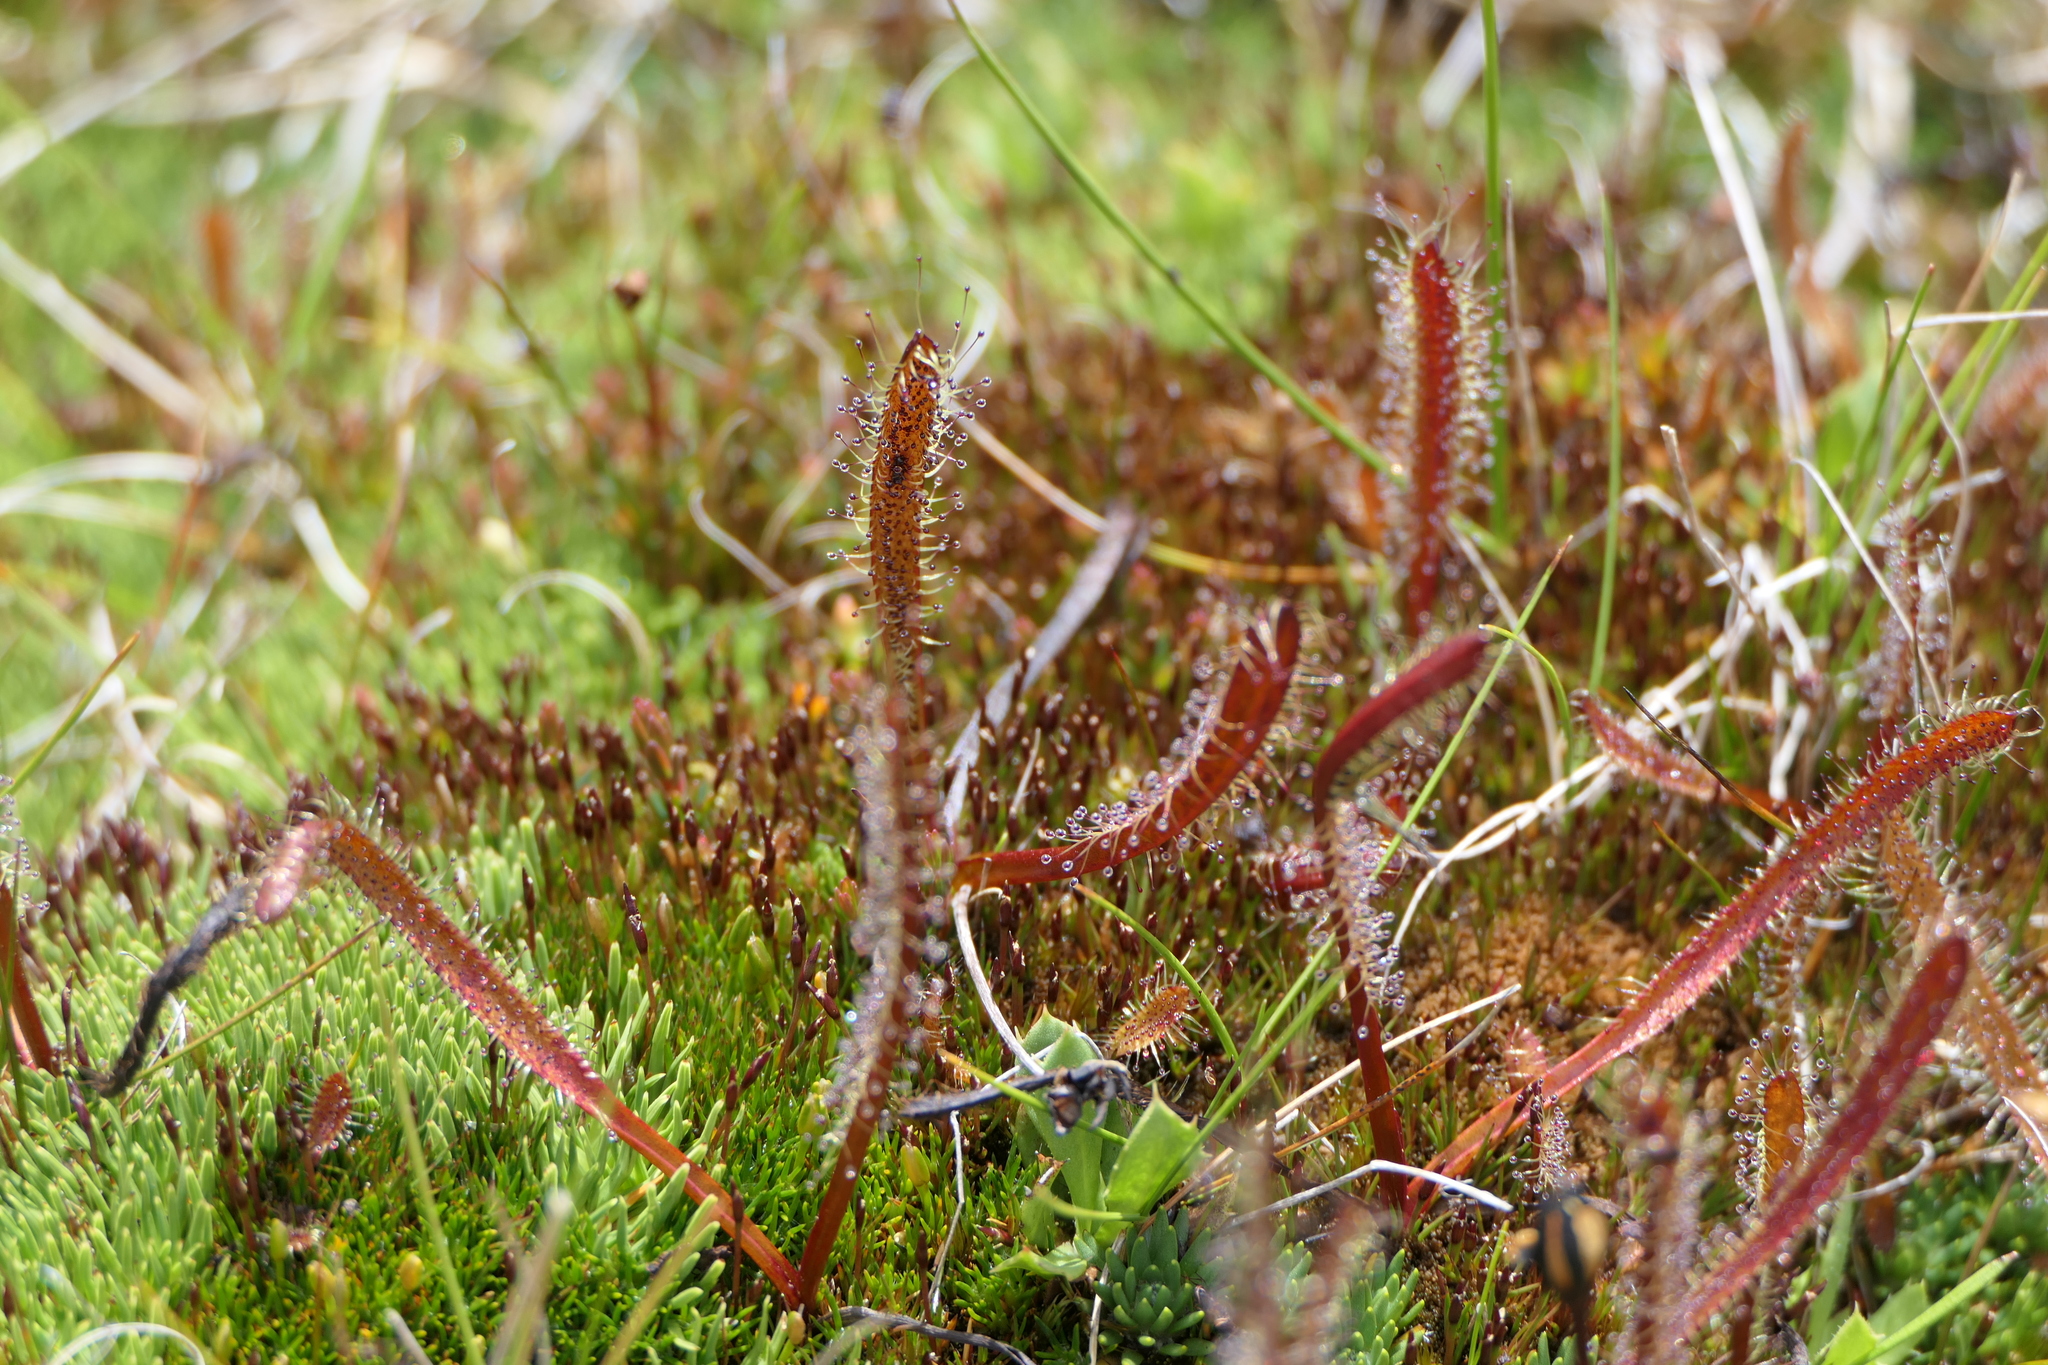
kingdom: Plantae
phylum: Tracheophyta
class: Magnoliopsida
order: Caryophyllales
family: Droseraceae
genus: Drosera
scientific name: Drosera arcturi
